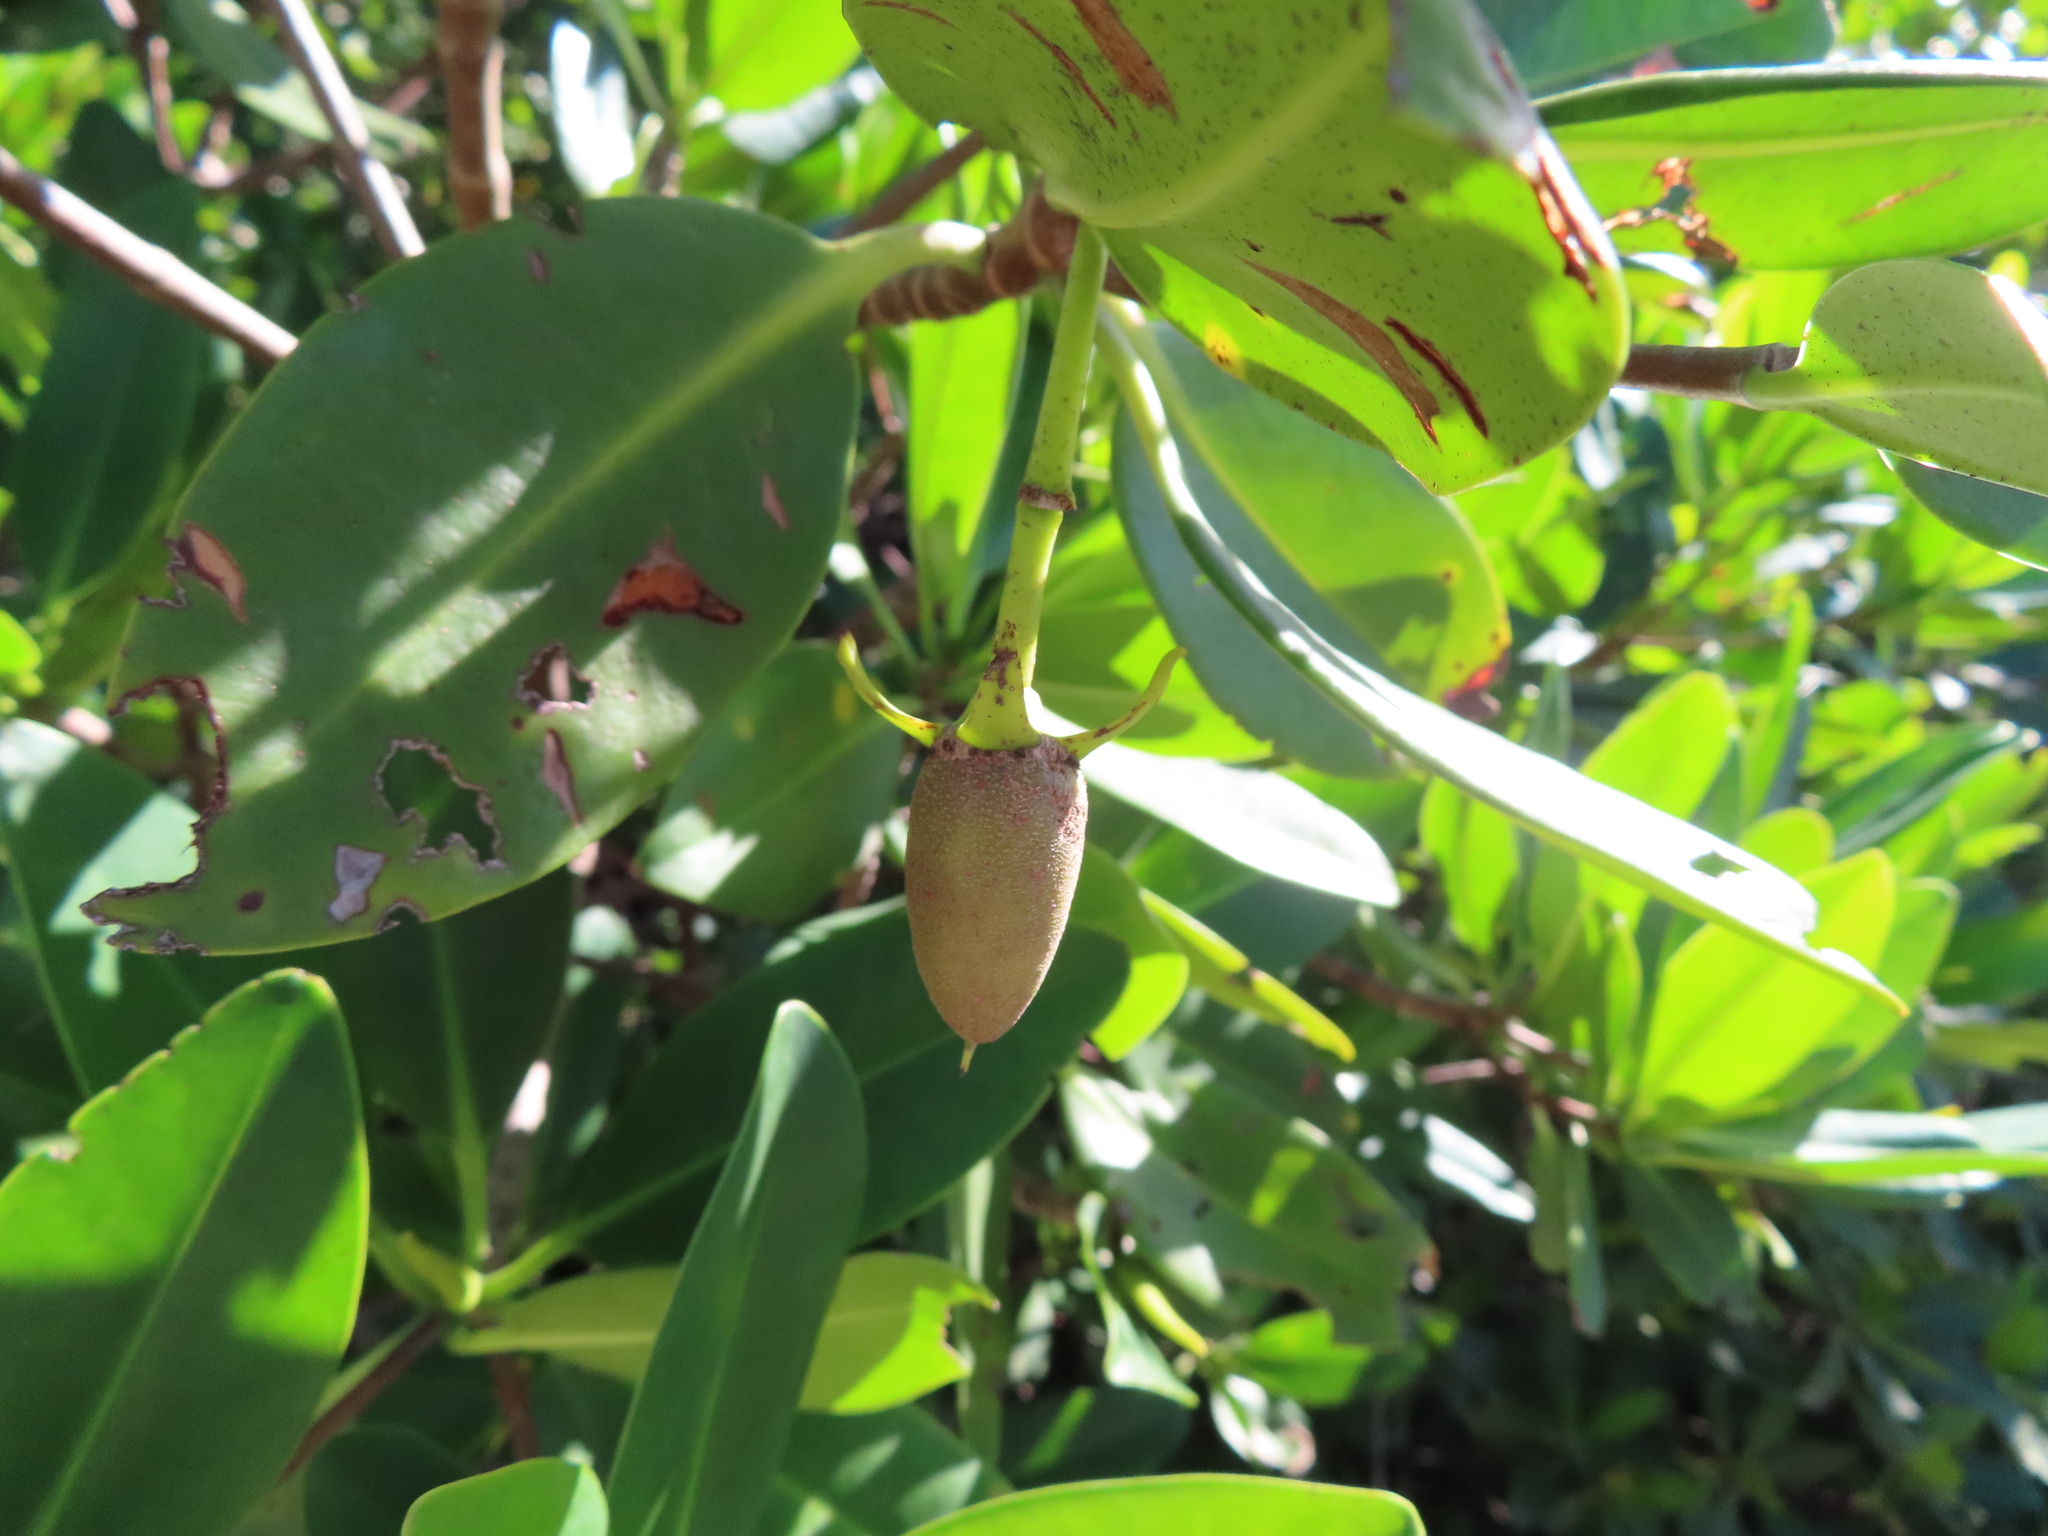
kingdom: Plantae
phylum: Tracheophyta
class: Magnoliopsida
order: Malpighiales
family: Rhizophoraceae
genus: Rhizophora
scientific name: Rhizophora mangle
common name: Red mangrove
